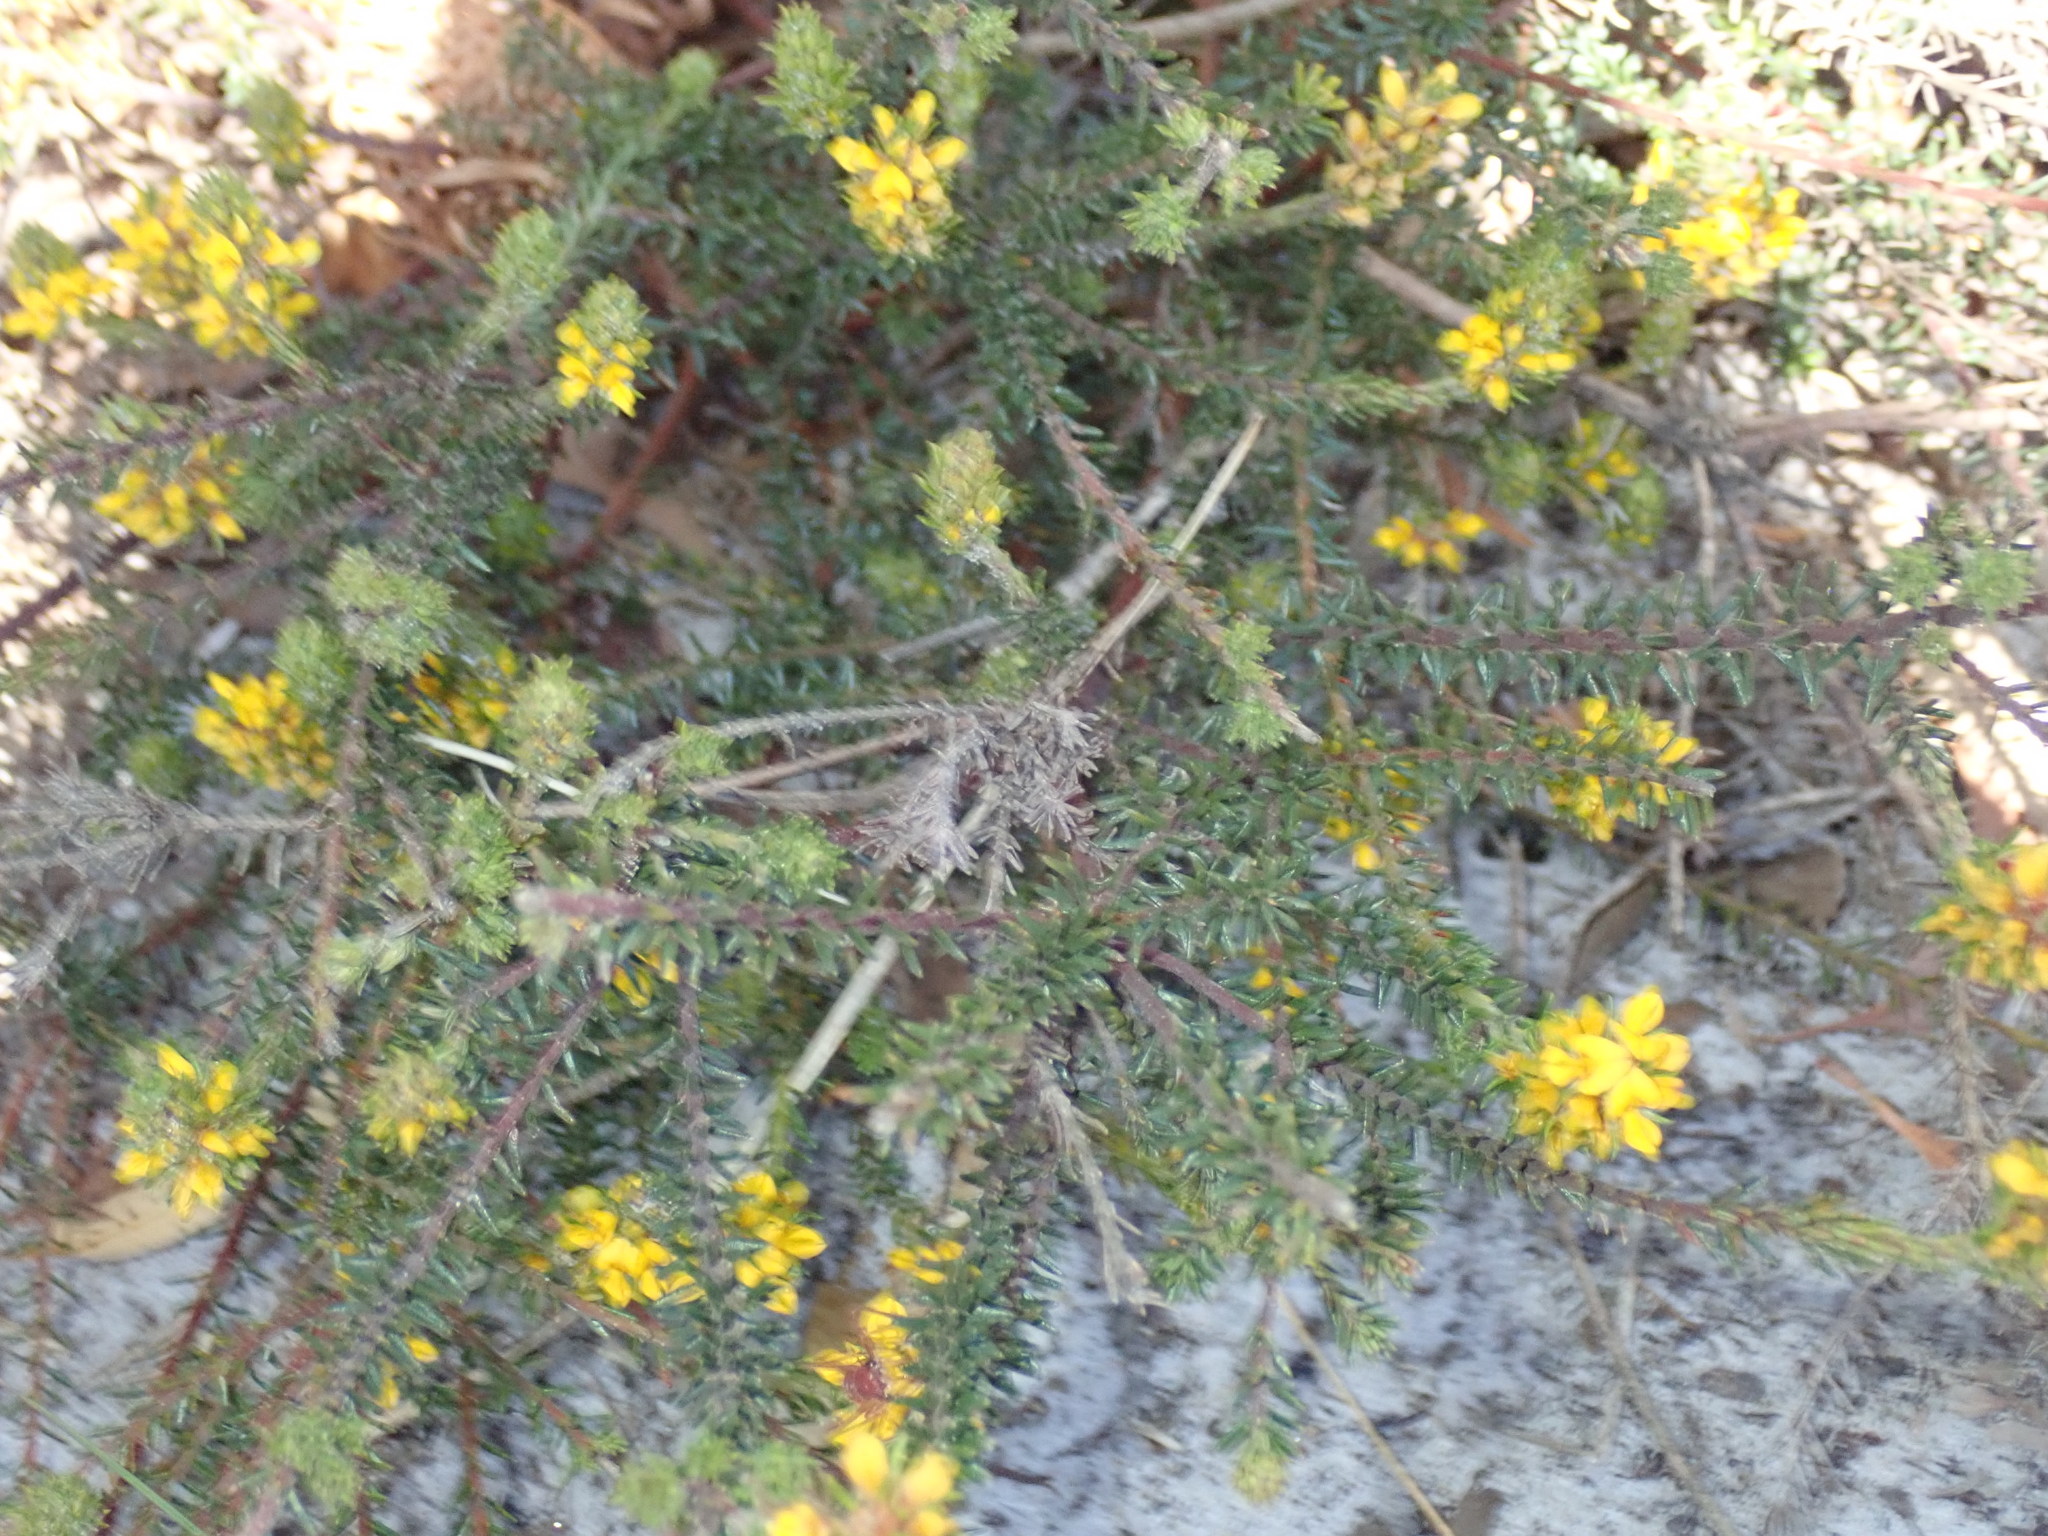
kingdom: Plantae
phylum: Tracheophyta
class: Magnoliopsida
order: Fabales
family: Fabaceae
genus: Phyllota
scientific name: Phyllota phylicoides
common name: Heath phyllota
